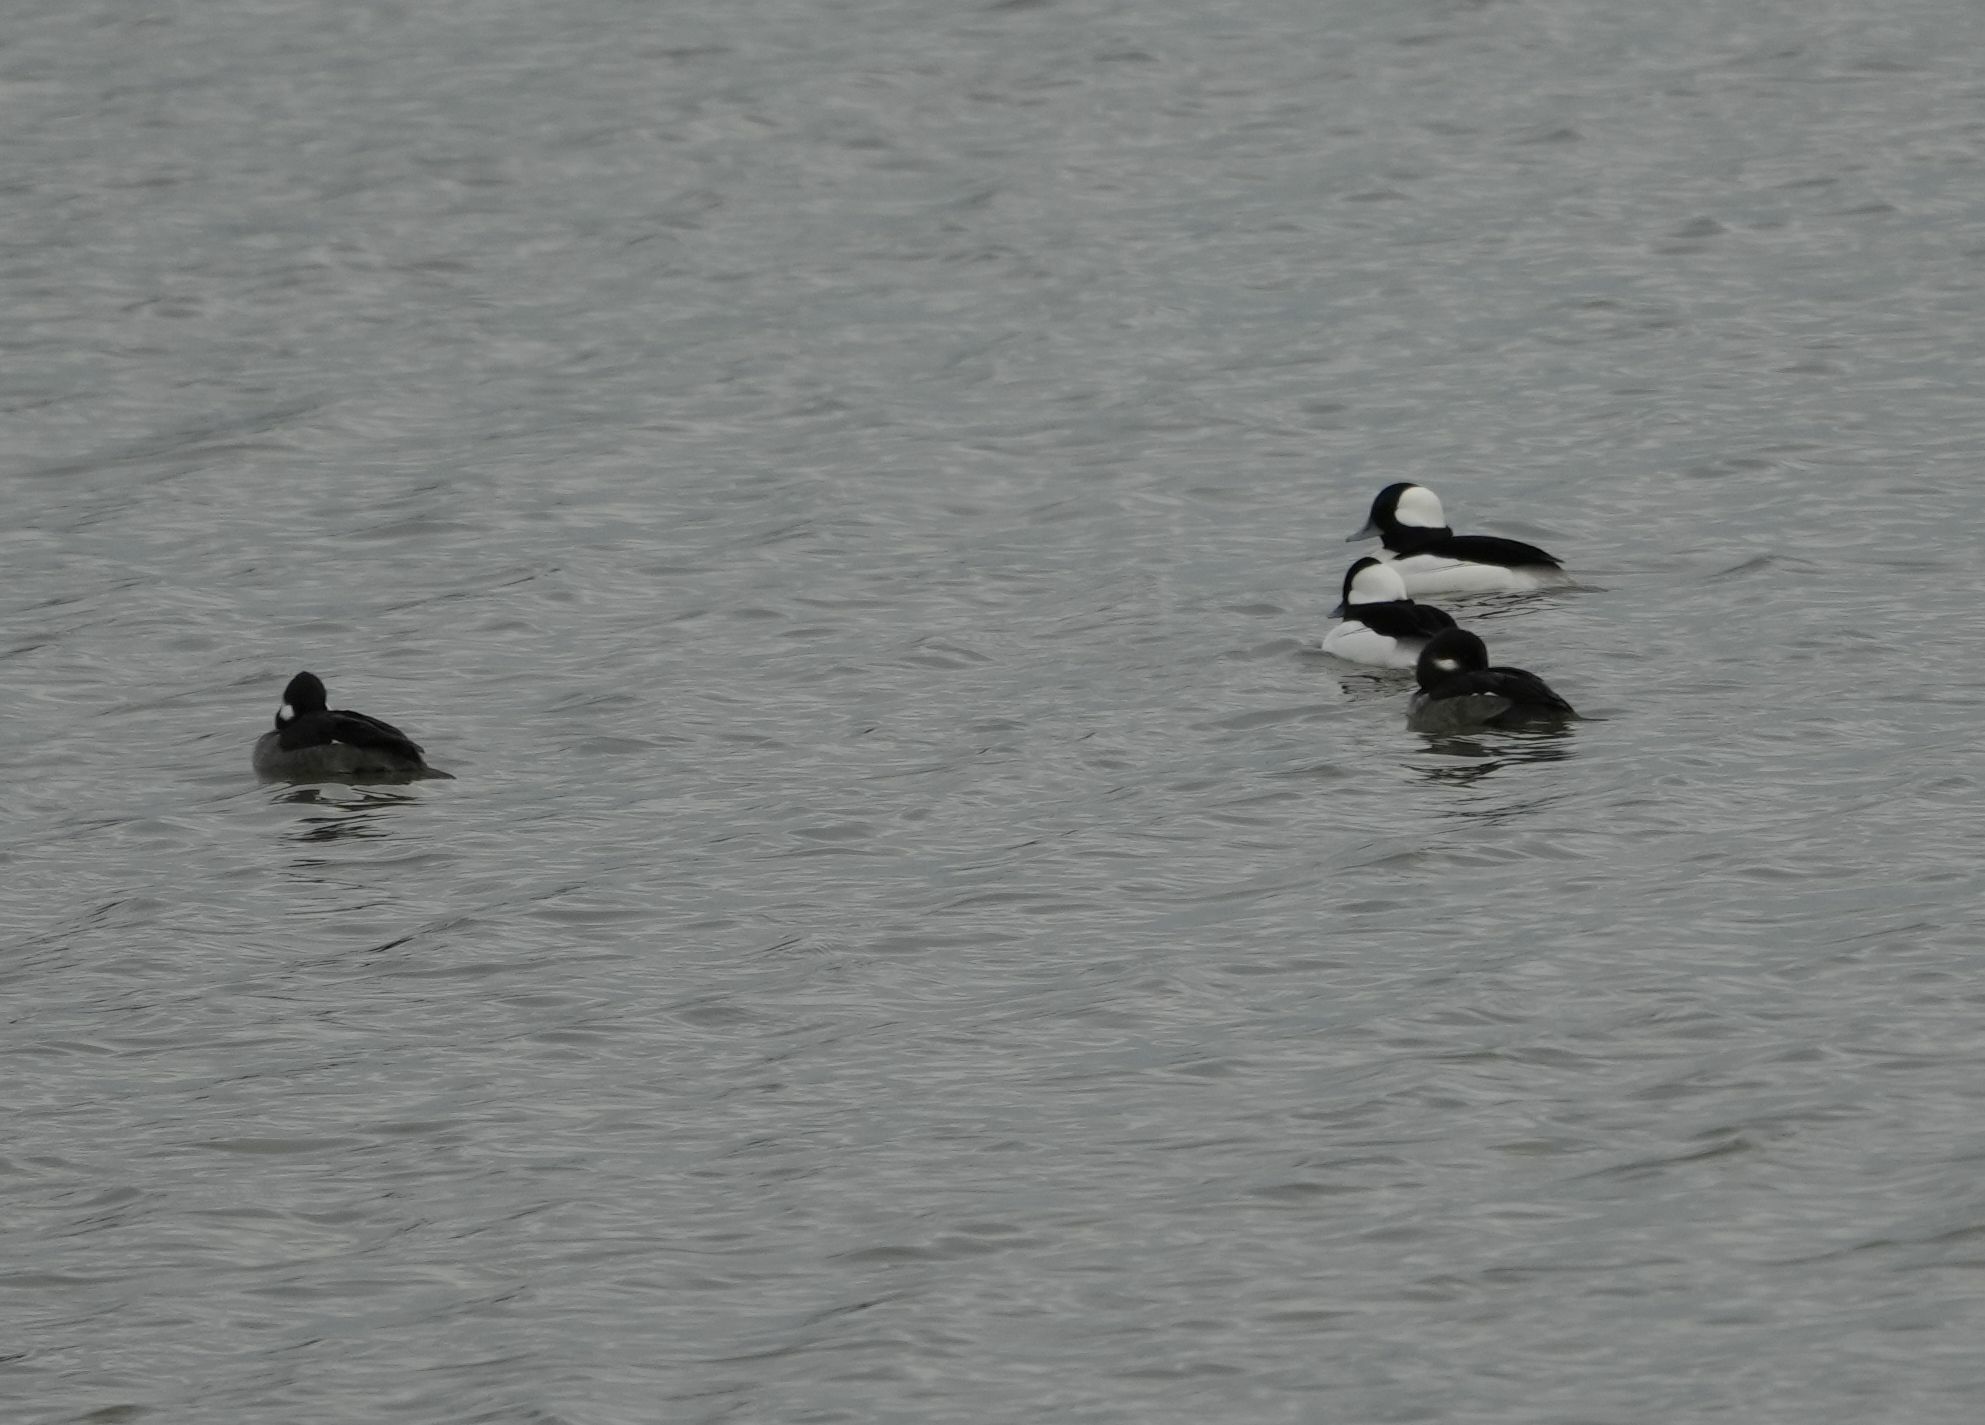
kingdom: Animalia
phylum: Chordata
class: Aves
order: Anseriformes
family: Anatidae
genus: Bucephala
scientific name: Bucephala albeola
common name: Bufflehead
